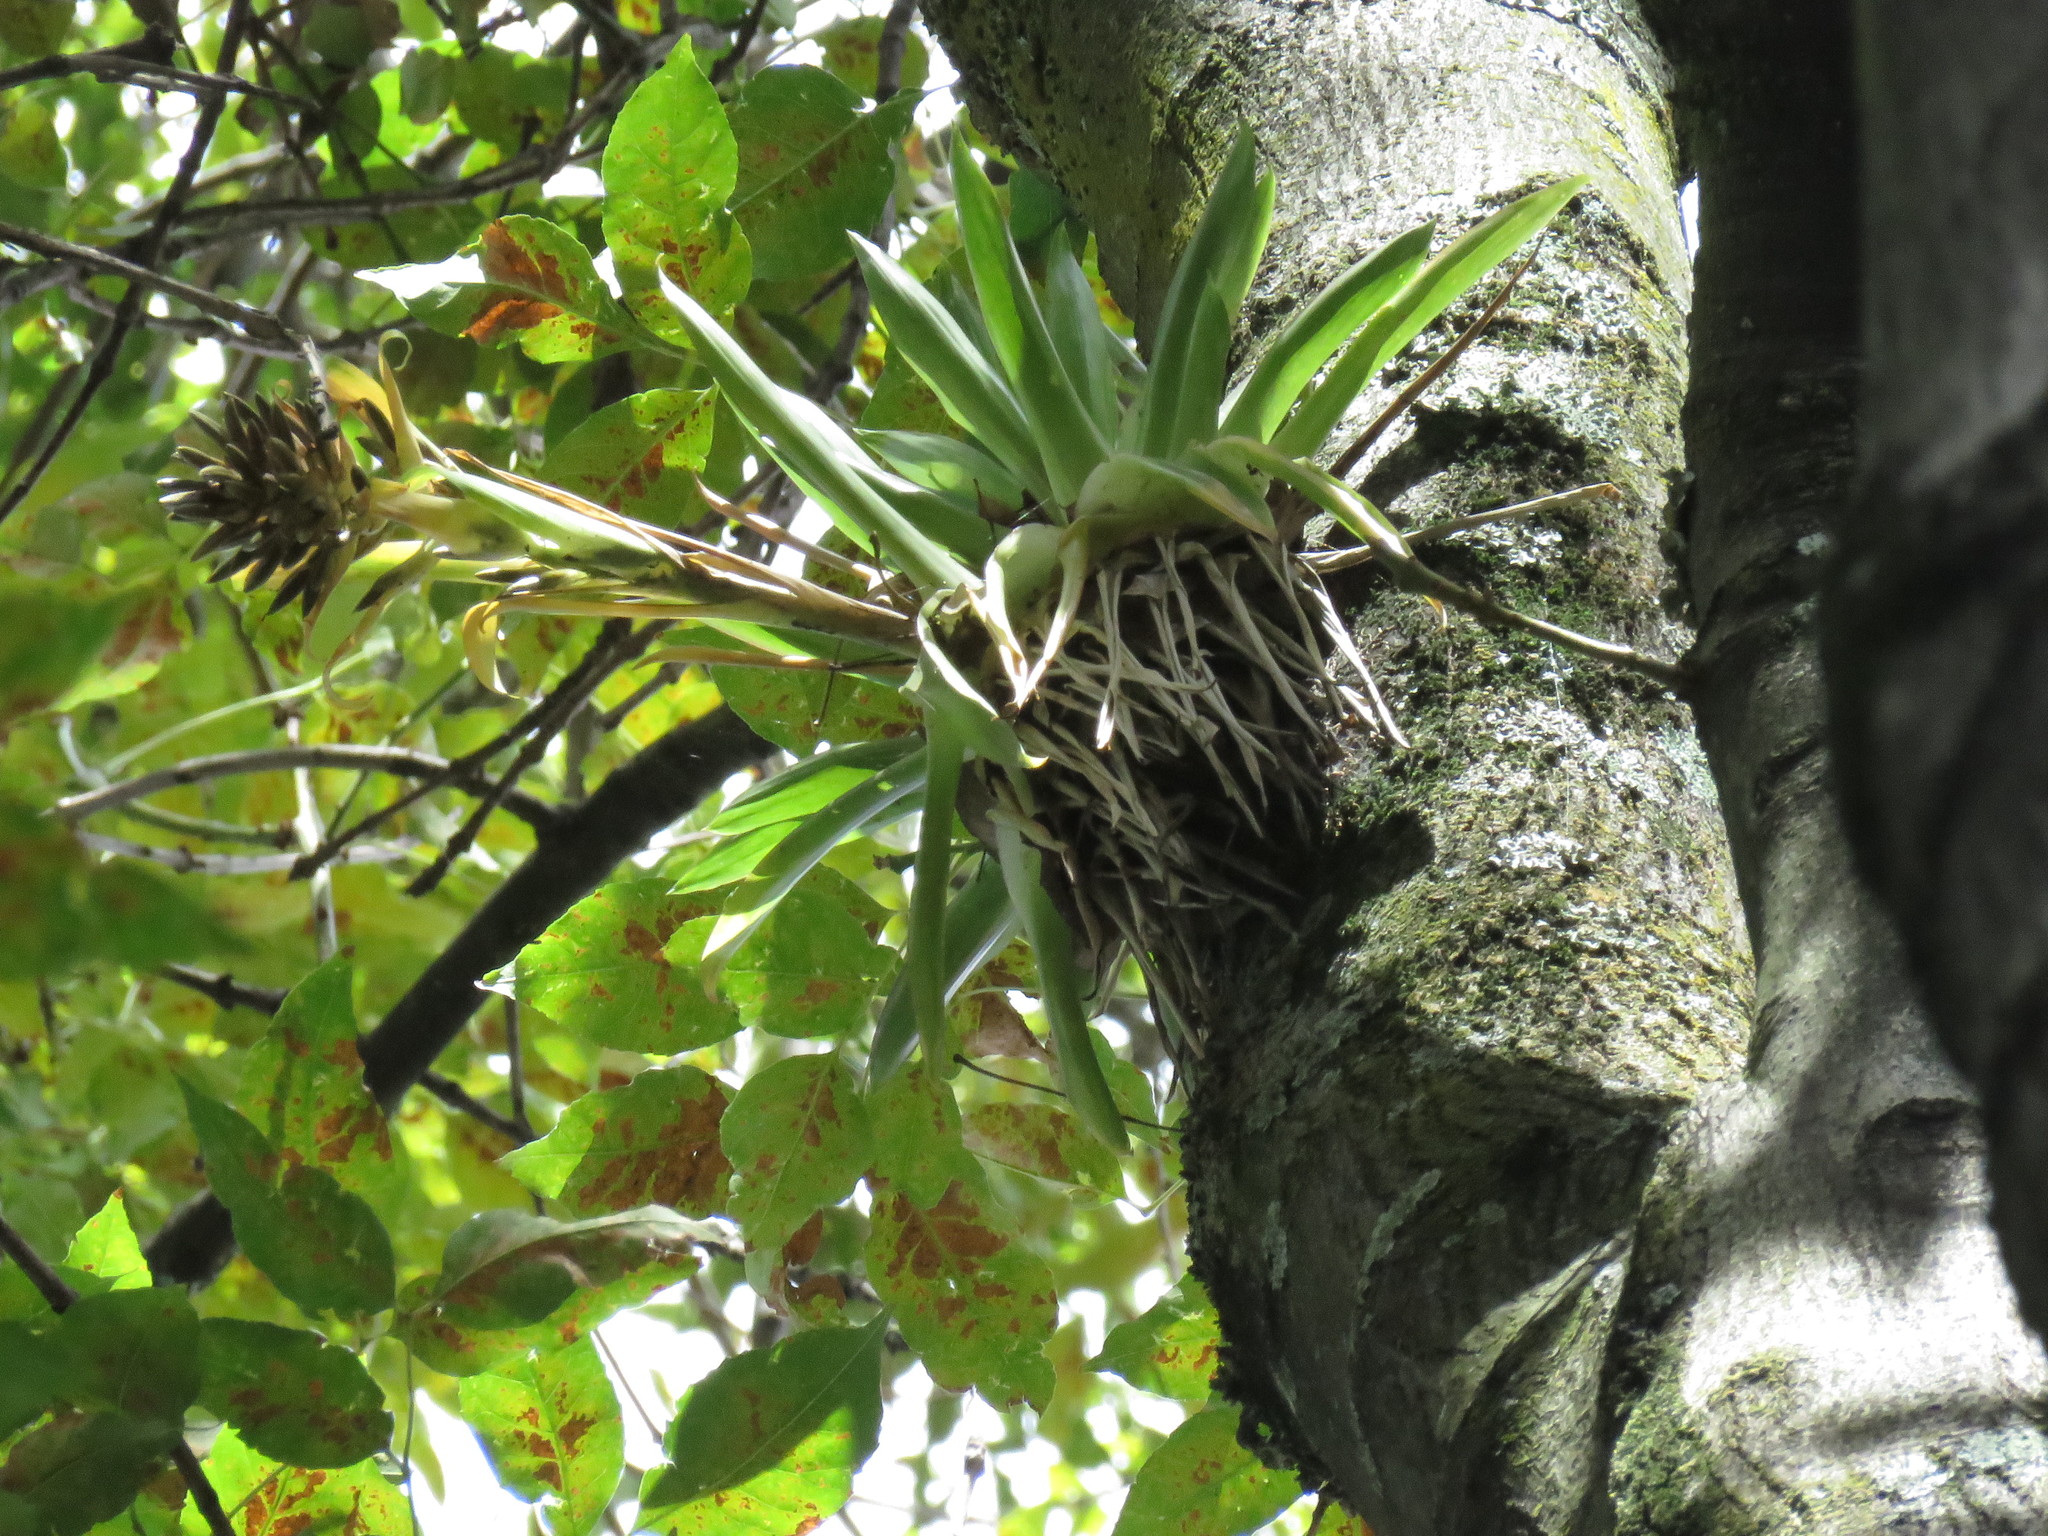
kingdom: Plantae
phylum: Tracheophyta
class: Liliopsida
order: Poales
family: Bromeliaceae
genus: Tillandsia
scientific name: Tillandsia biflora
